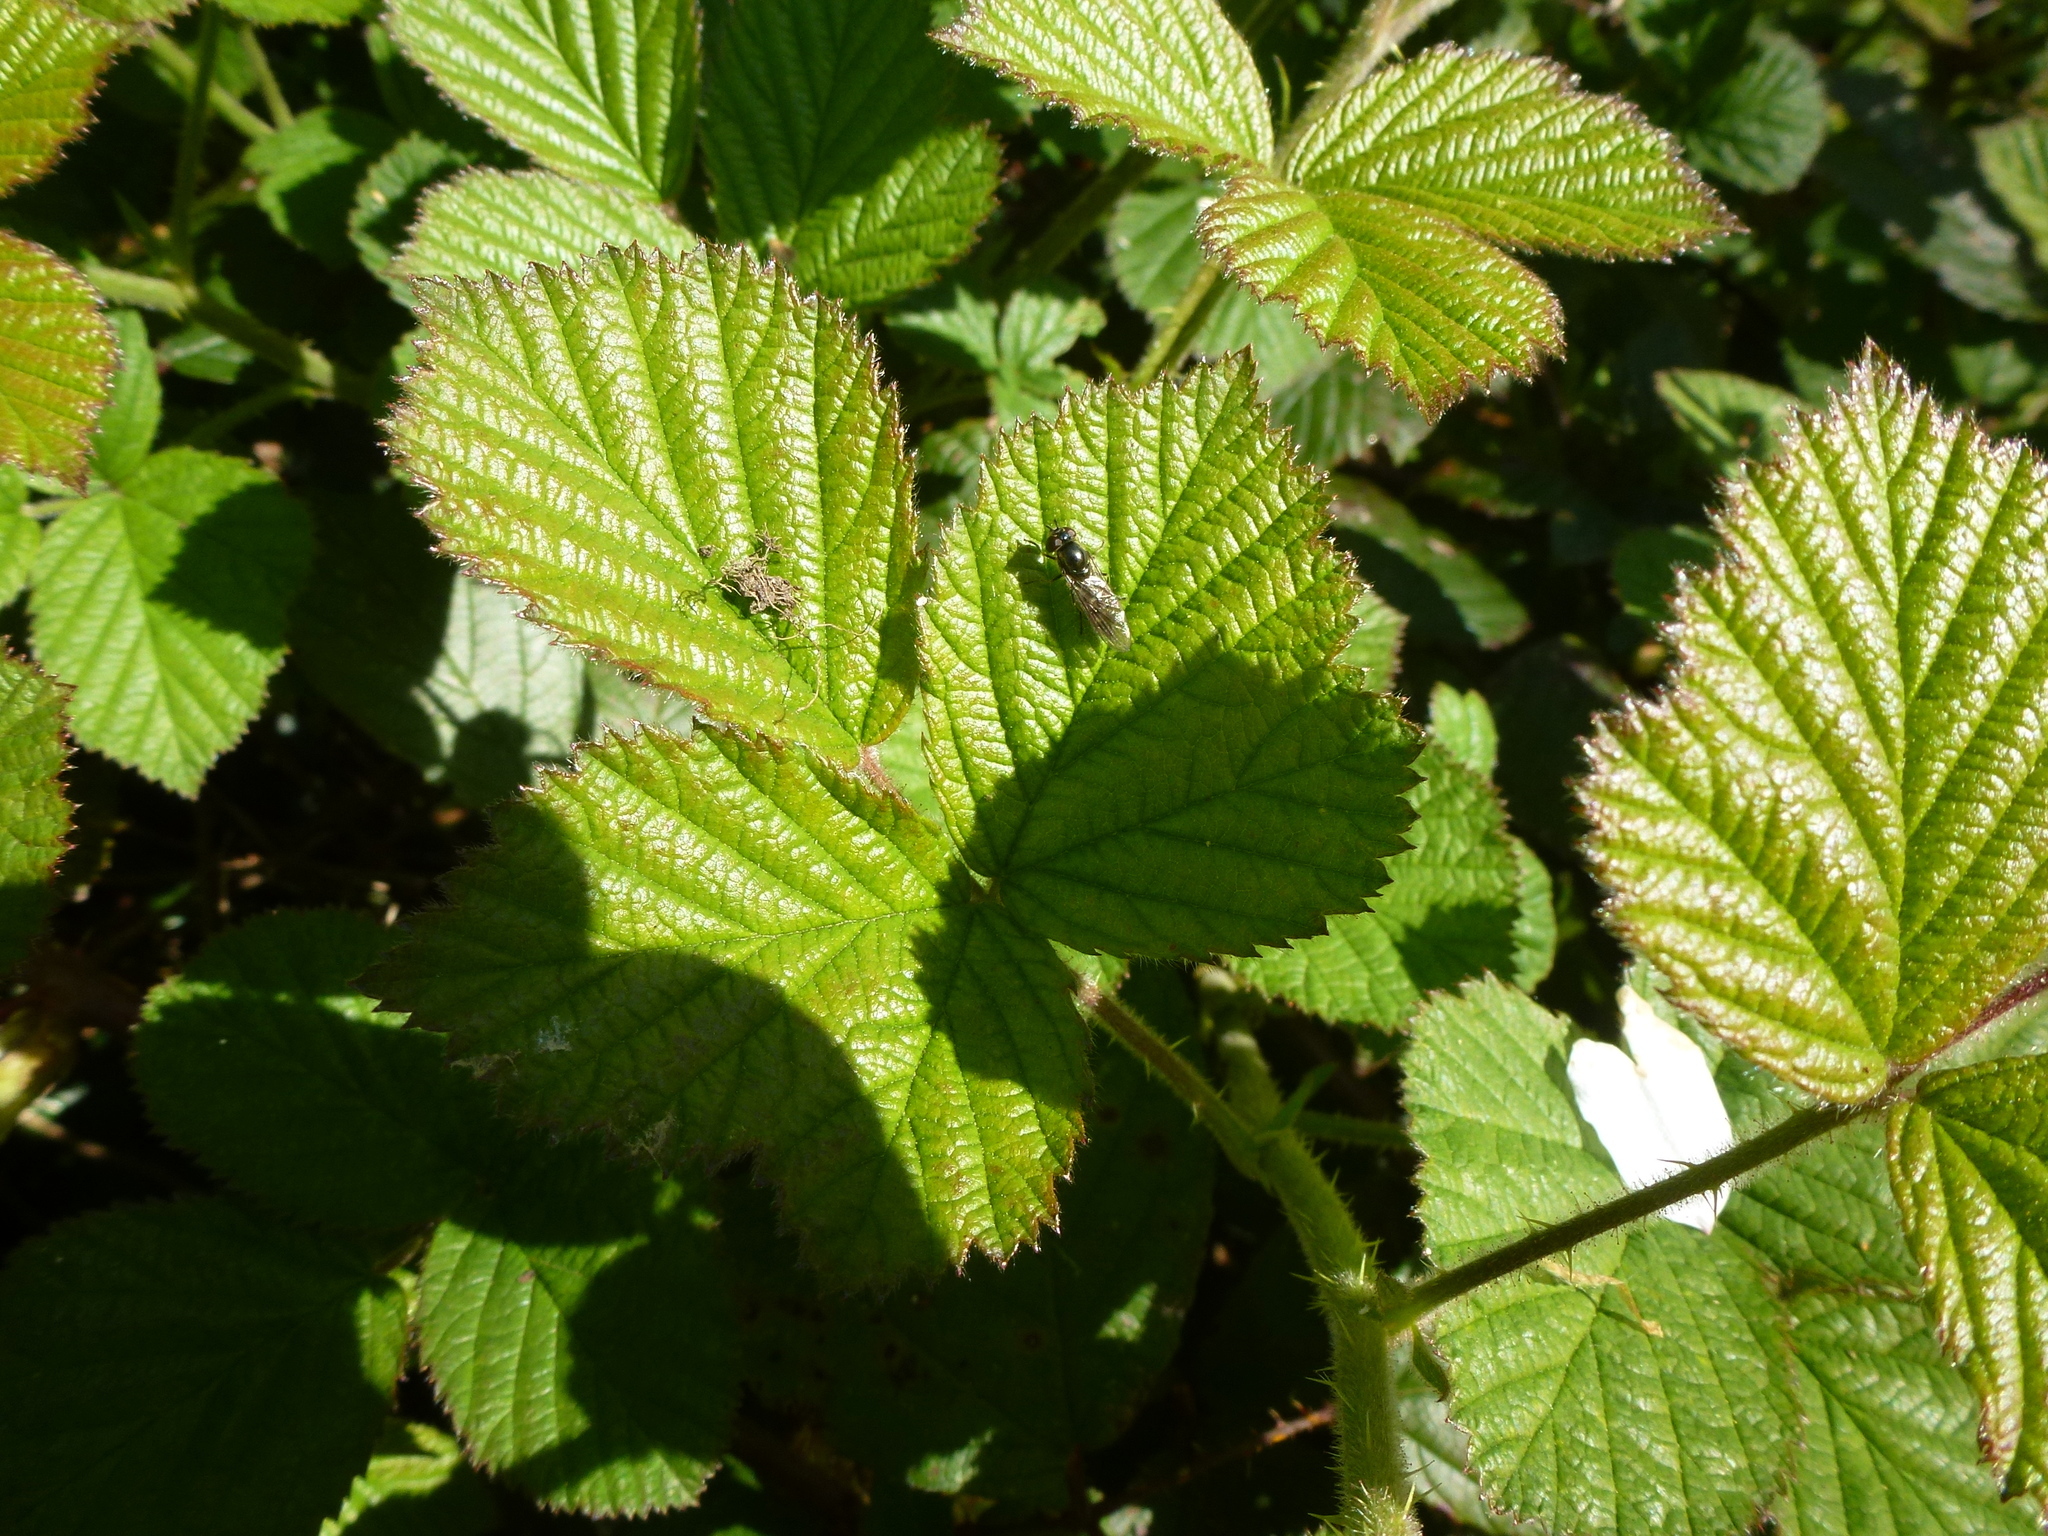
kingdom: Animalia
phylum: Arthropoda
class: Insecta
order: Diptera
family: Syrphidae
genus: Platycheirus
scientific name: Platycheirus albimanus
